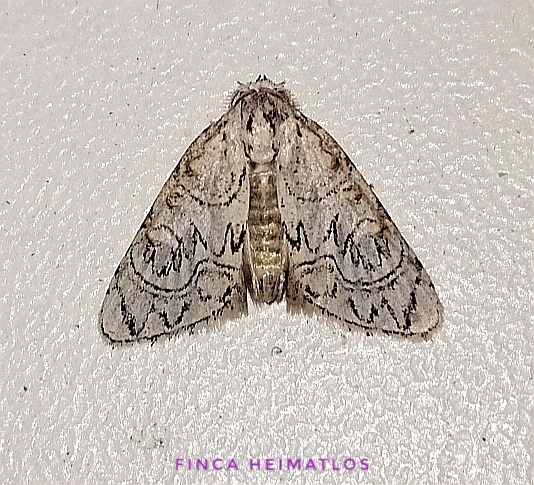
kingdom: Animalia
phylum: Arthropoda
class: Insecta
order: Lepidoptera
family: Nolidae
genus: Meganola
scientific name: Meganola
